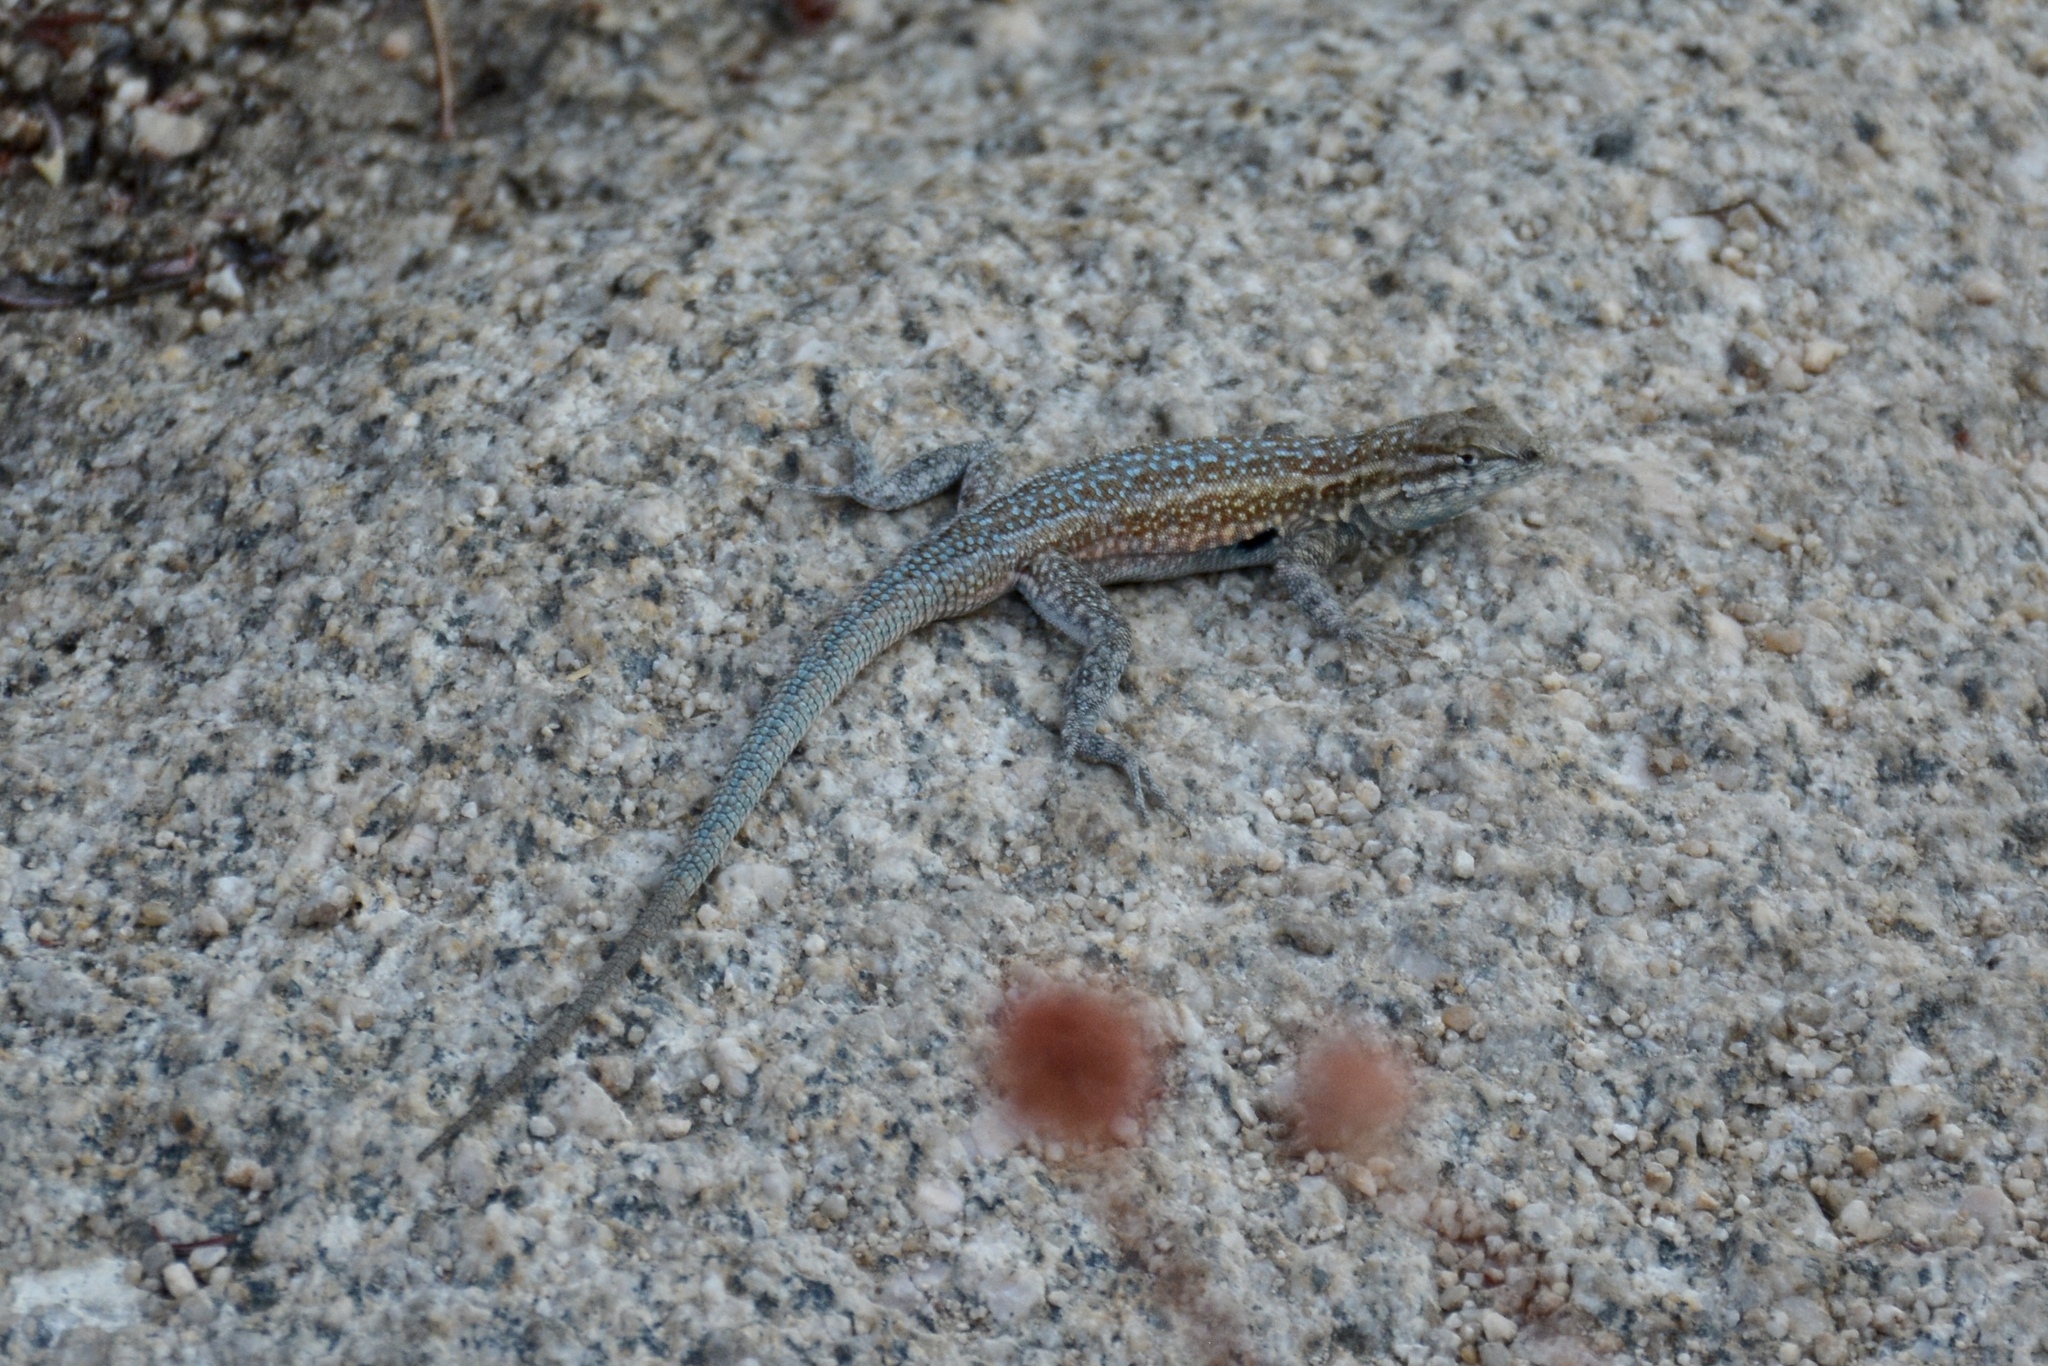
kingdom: Animalia
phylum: Chordata
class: Squamata
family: Phrynosomatidae
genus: Uta
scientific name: Uta stansburiana
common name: Side-blotched lizard
